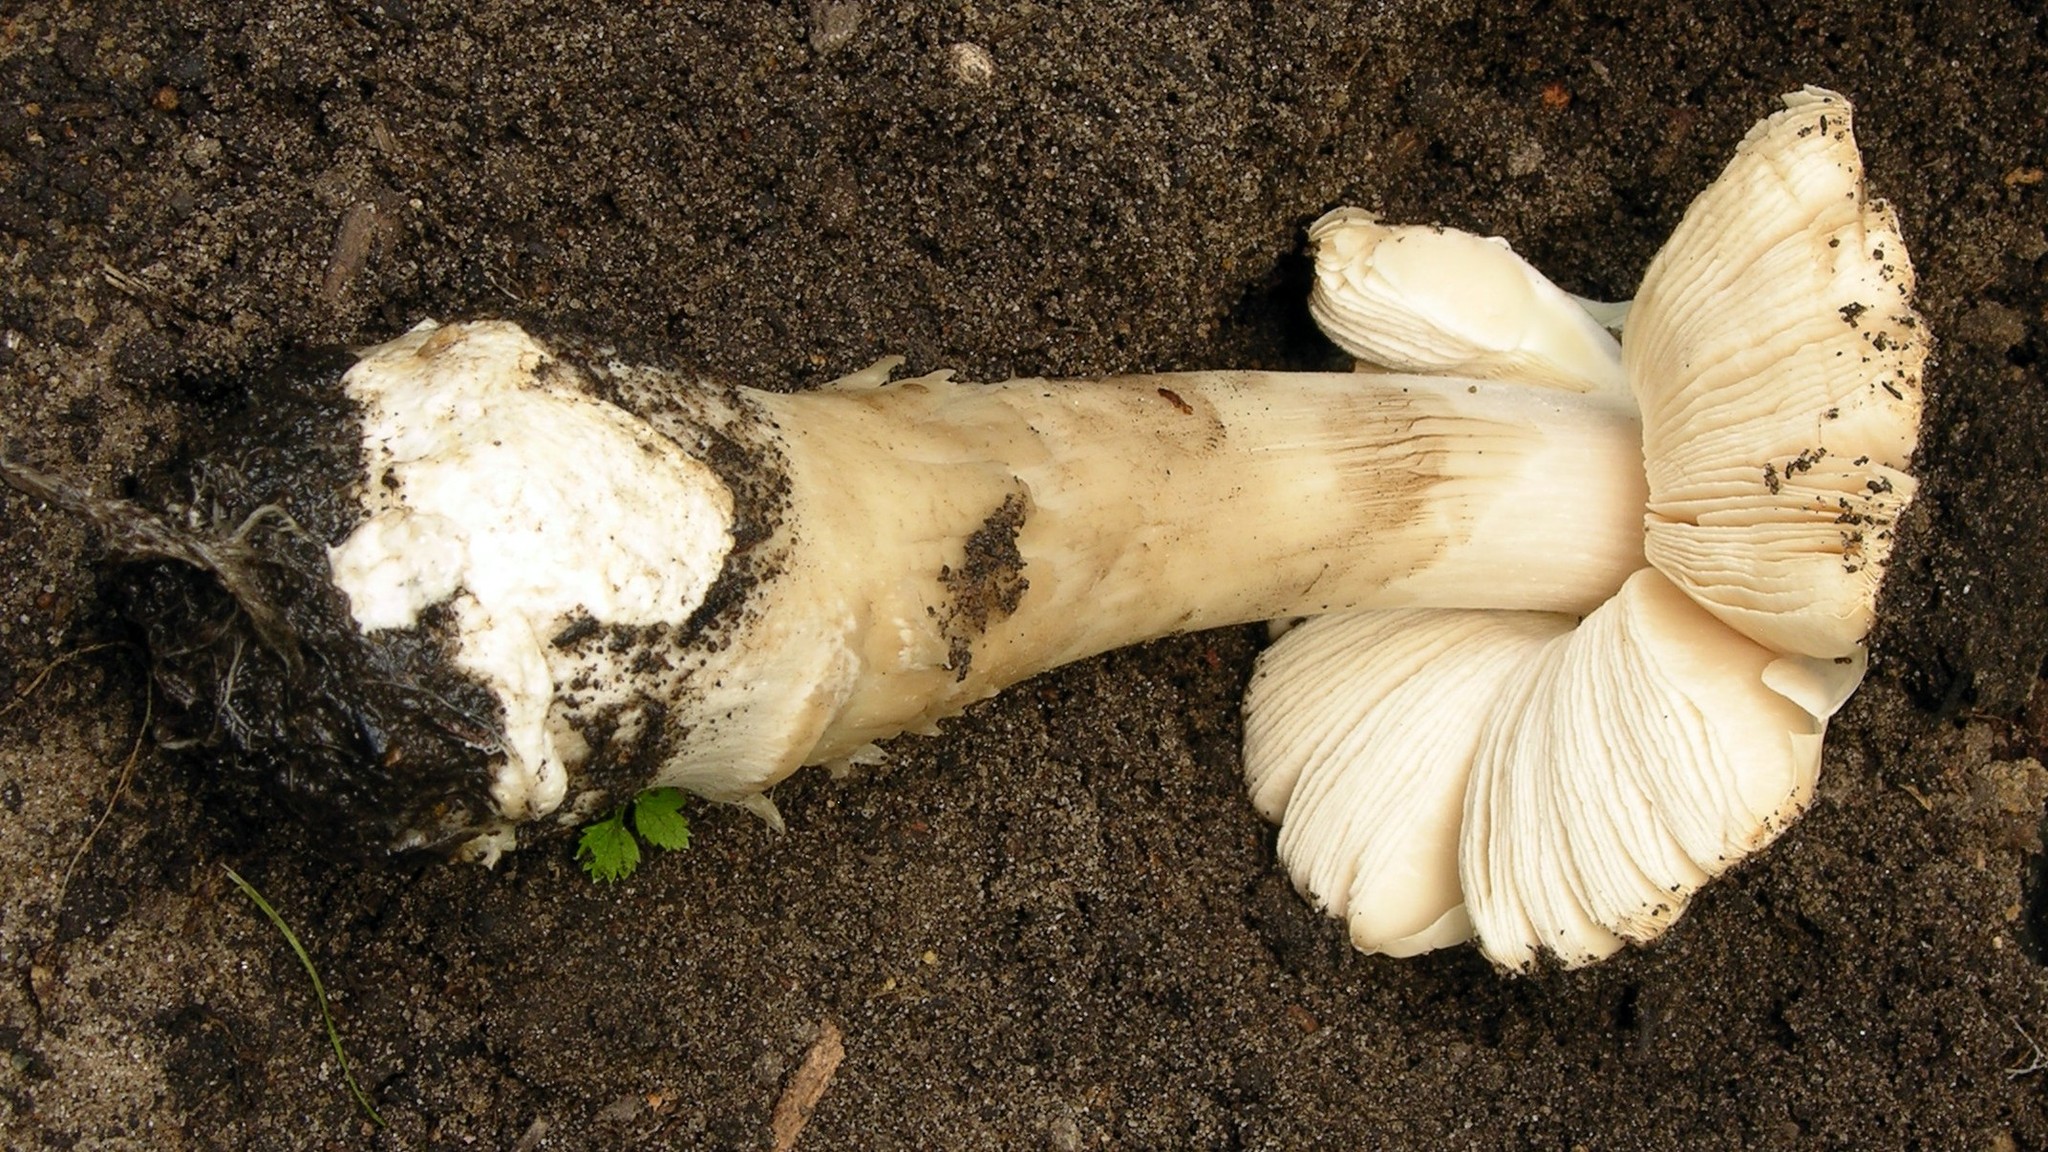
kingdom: Fungi
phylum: Basidiomycota
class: Agaricomycetes
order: Agaricales
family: Pluteaceae
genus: Volvopluteus
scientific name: Volvopluteus gloiocephalus
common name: Stubble rosegill
